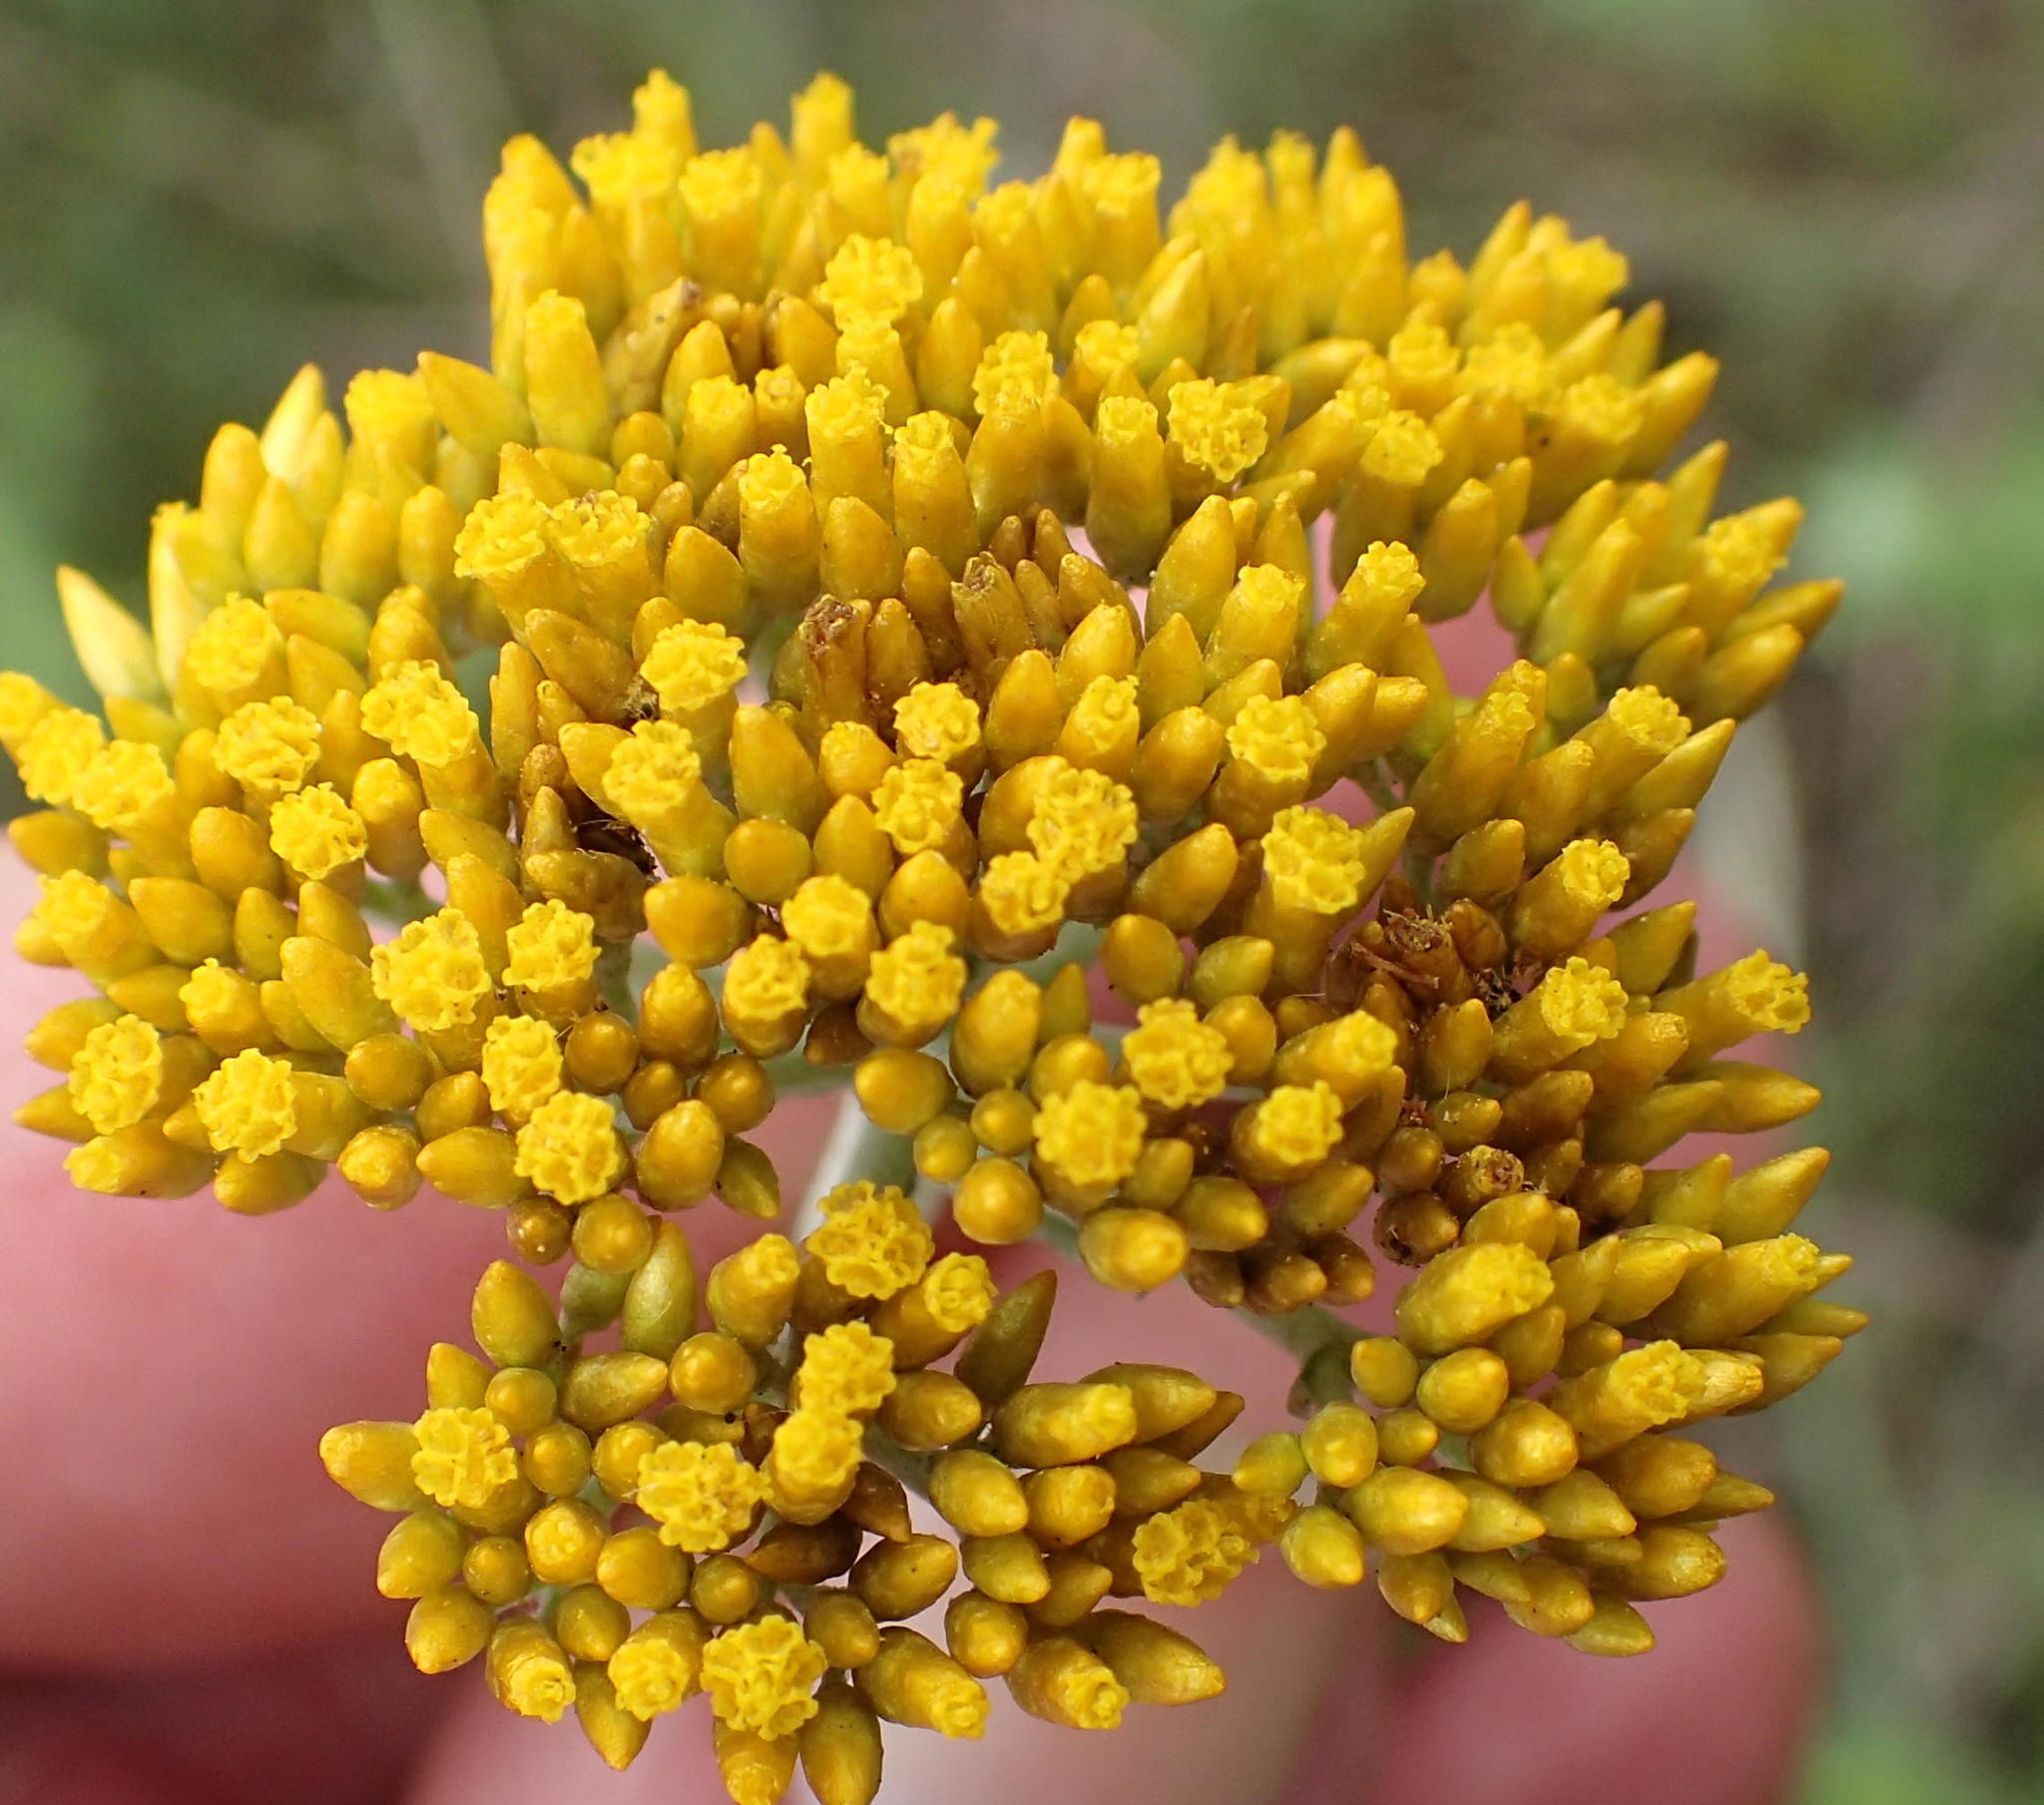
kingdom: Plantae
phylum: Tracheophyta
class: Magnoliopsida
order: Asterales
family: Asteraceae
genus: Helichrysum
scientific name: Helichrysum cymosum
